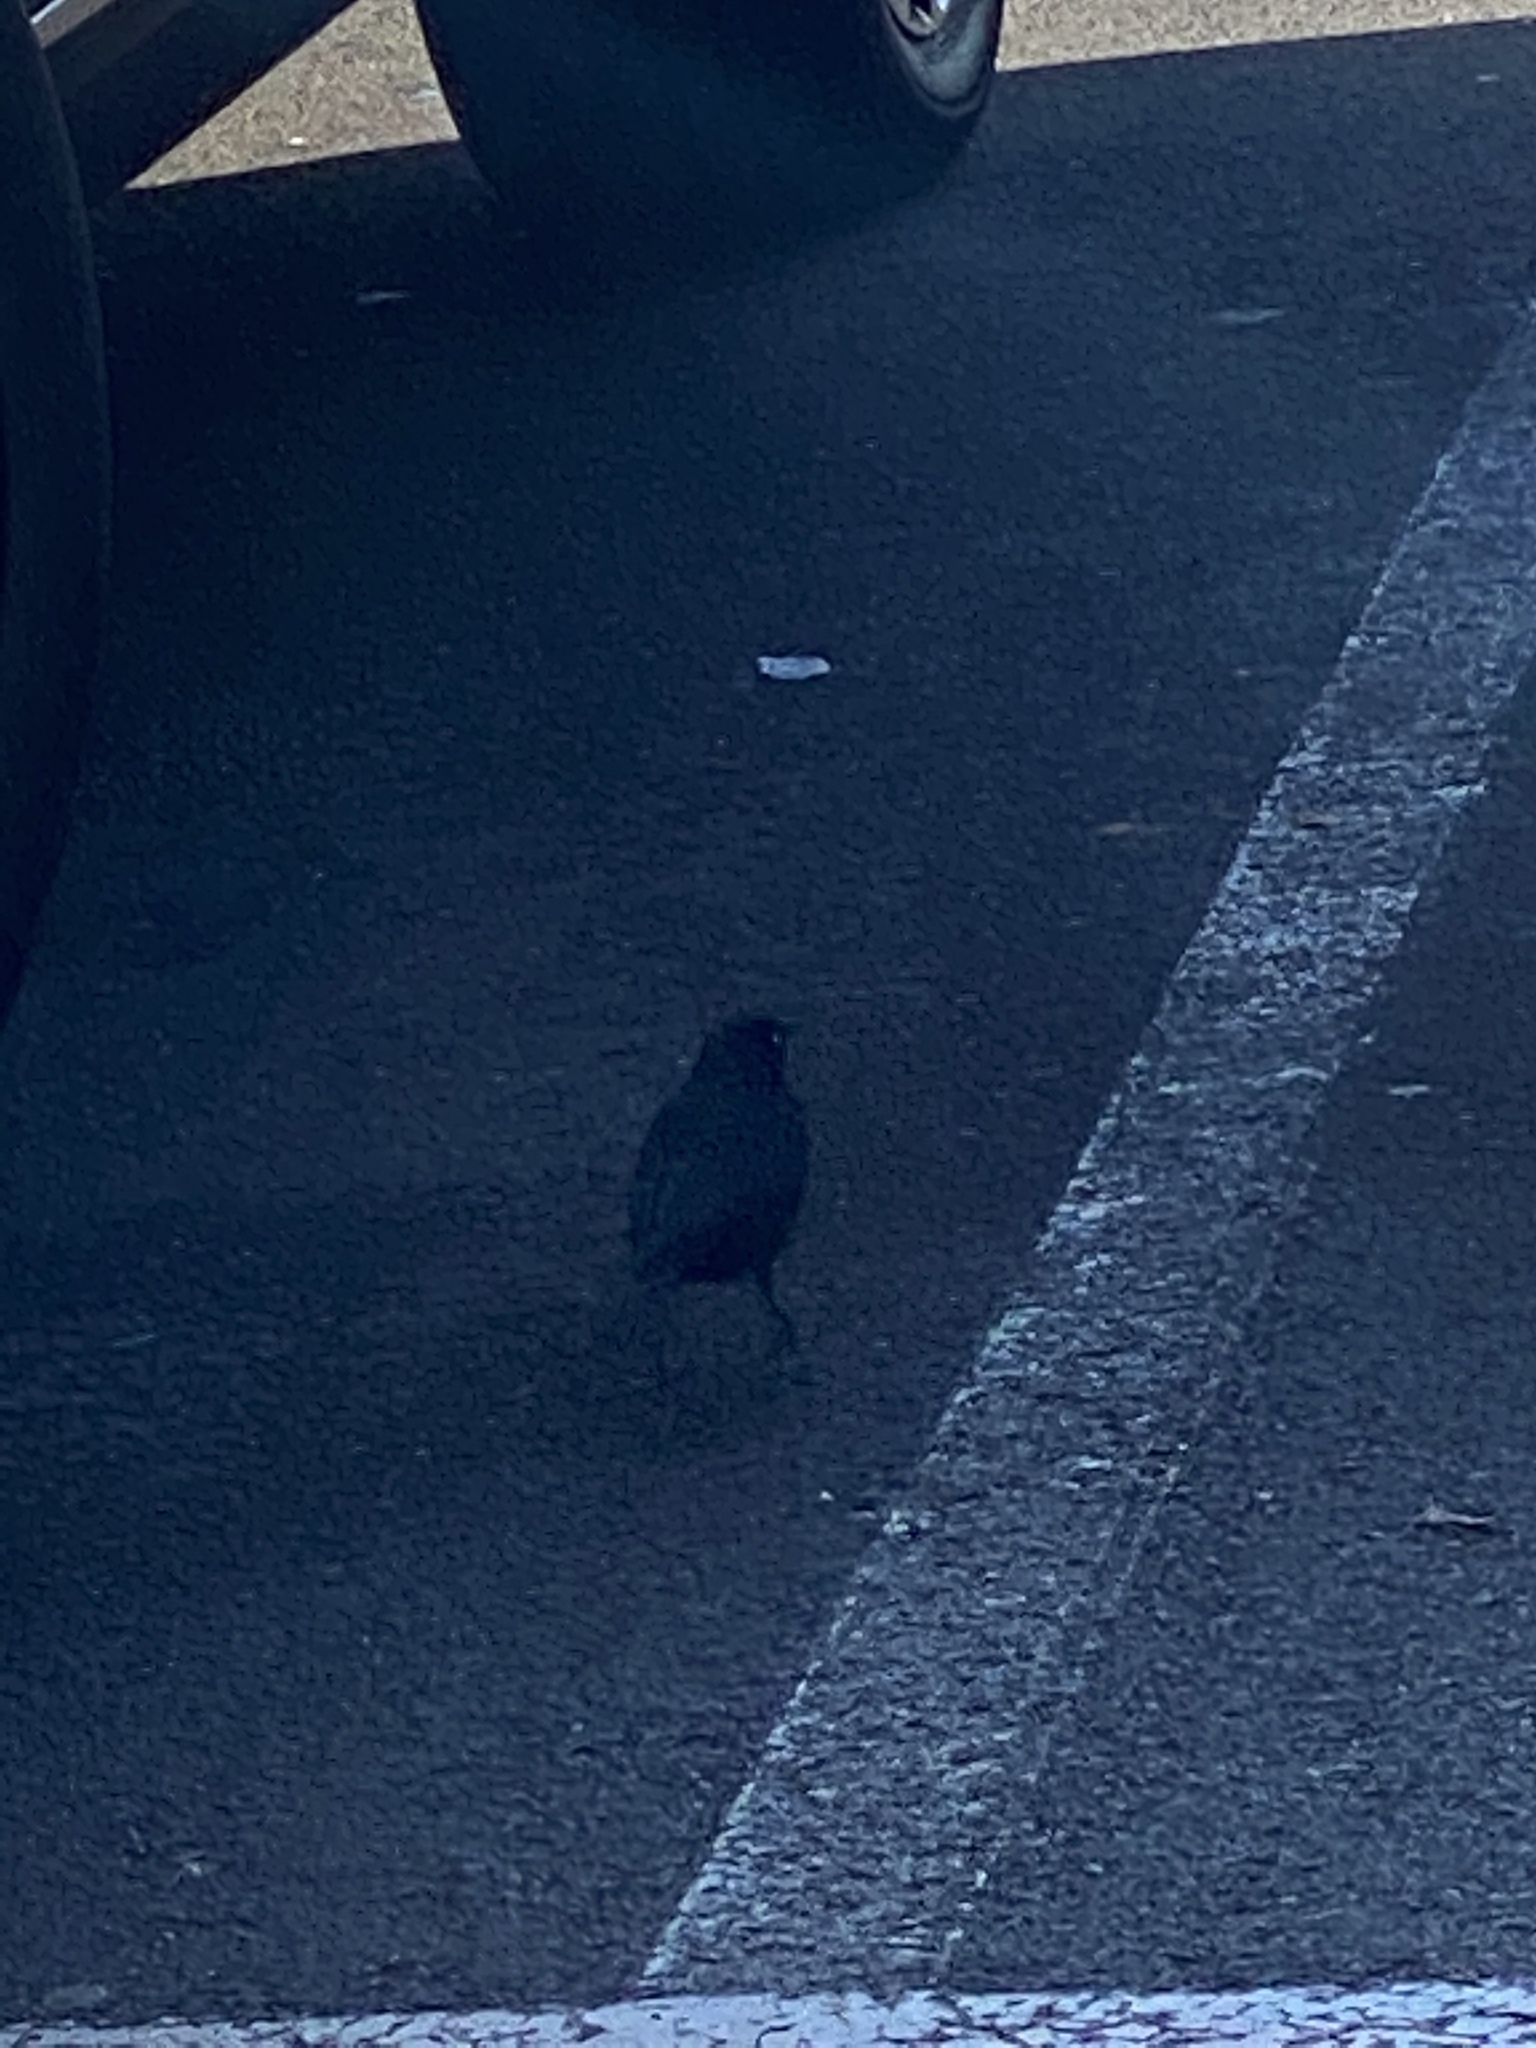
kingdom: Animalia
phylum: Chordata
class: Aves
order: Passeriformes
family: Icteridae
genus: Euphagus
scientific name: Euphagus cyanocephalus
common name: Brewer's blackbird
